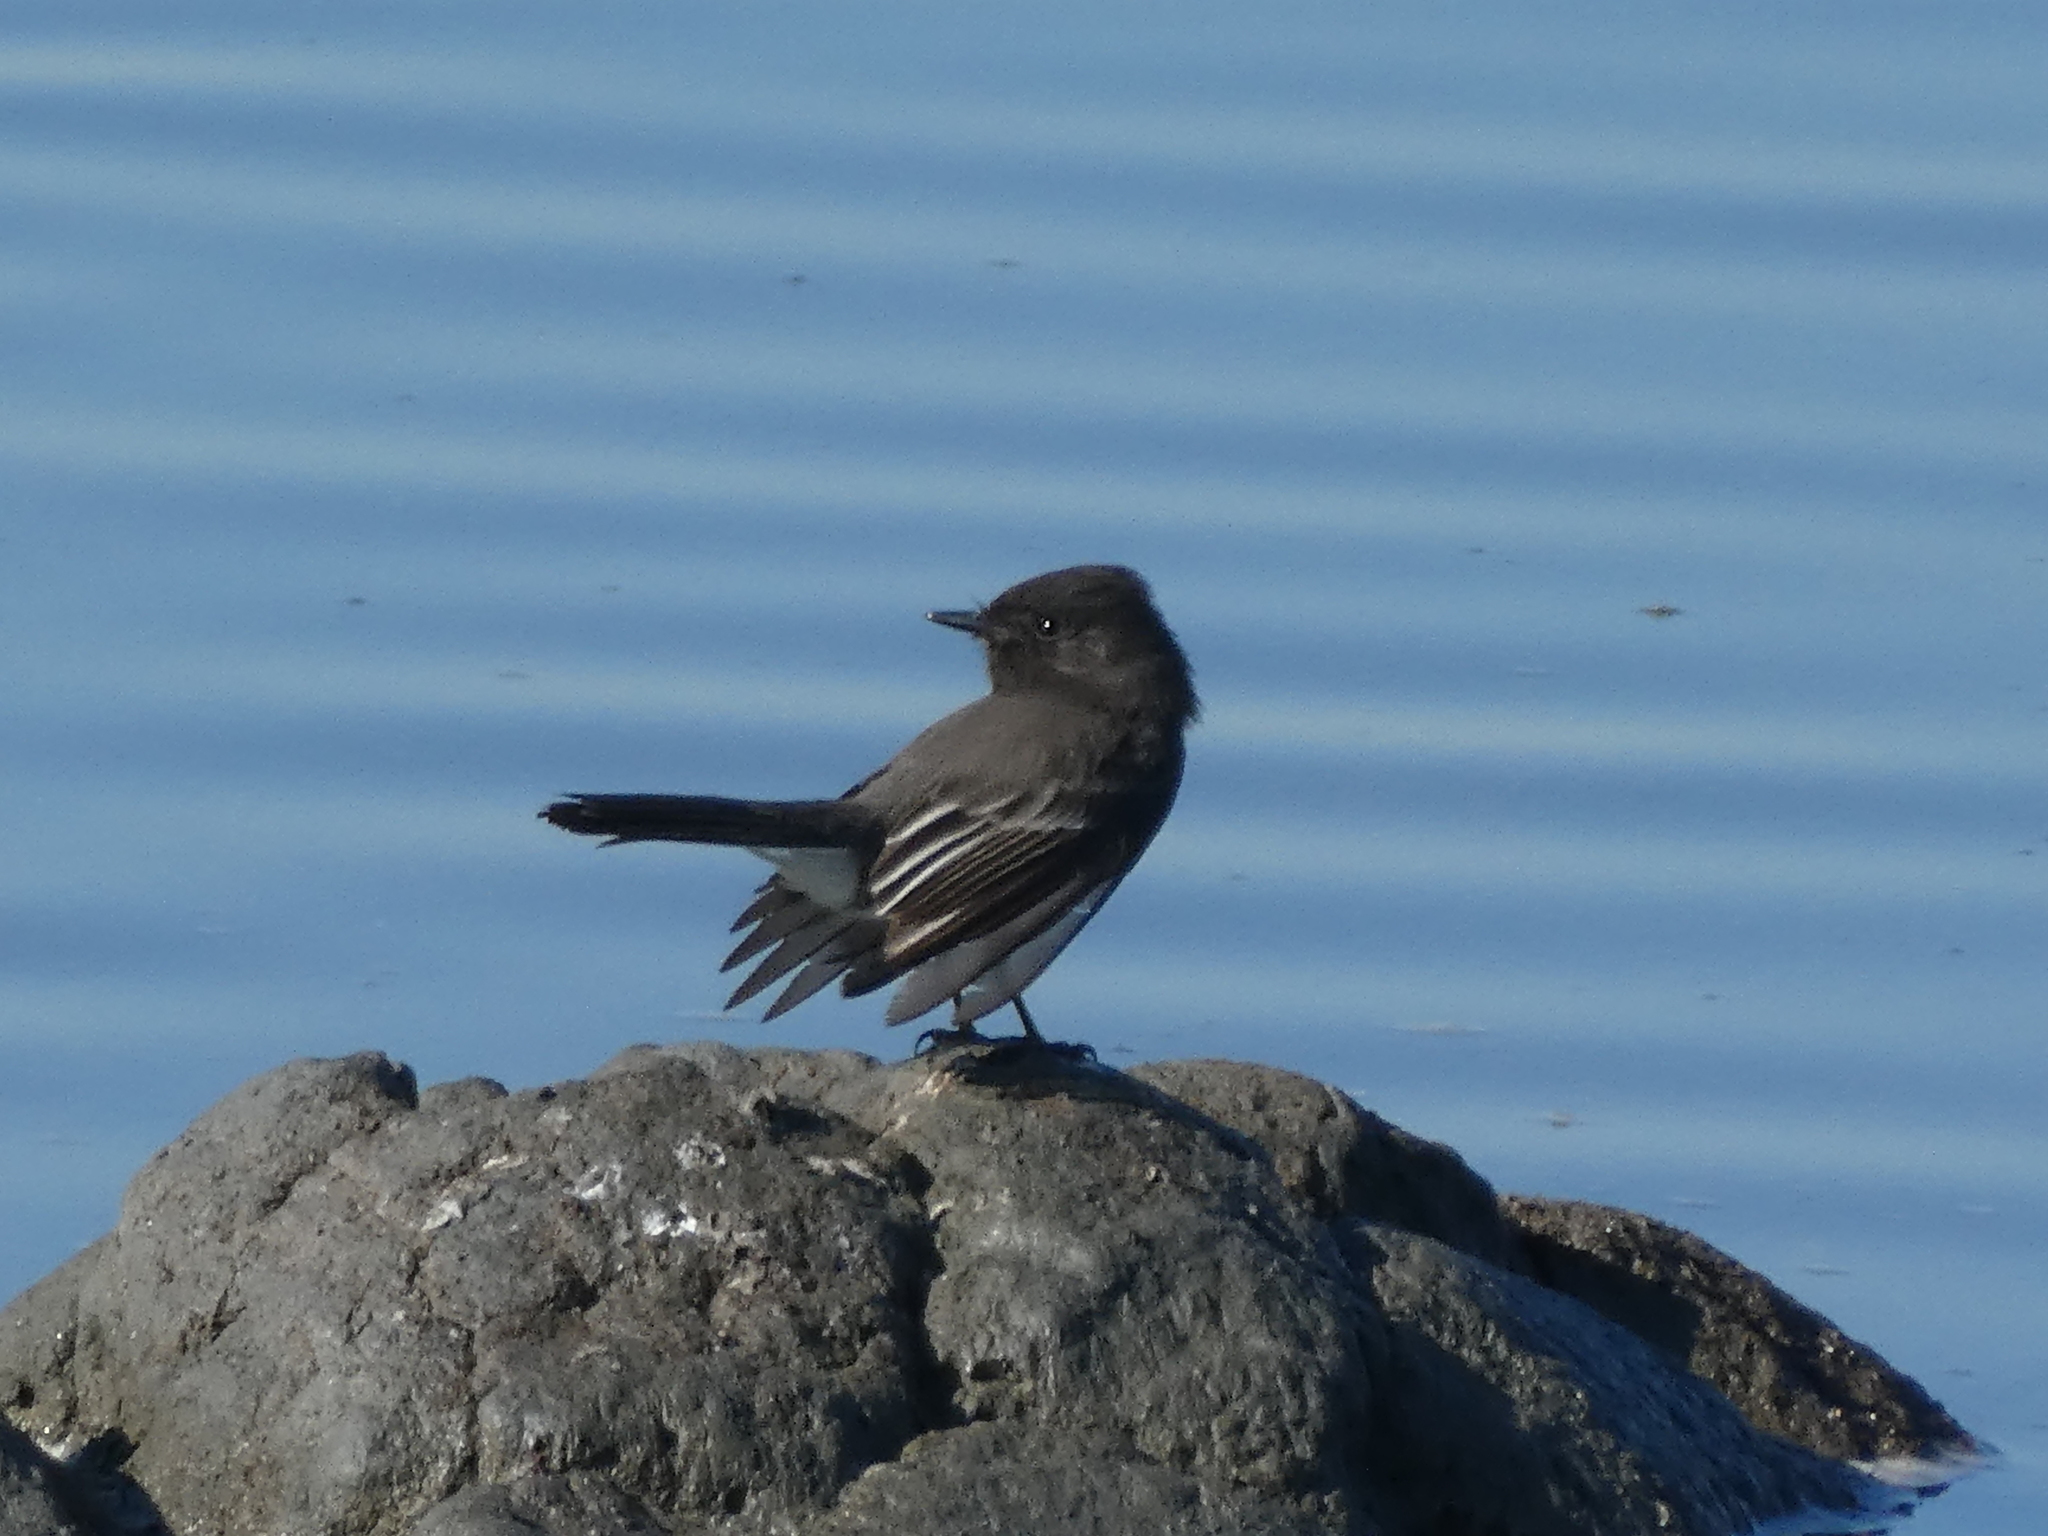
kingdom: Animalia
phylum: Chordata
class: Aves
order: Passeriformes
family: Tyrannidae
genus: Sayornis
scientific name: Sayornis nigricans
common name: Black phoebe
